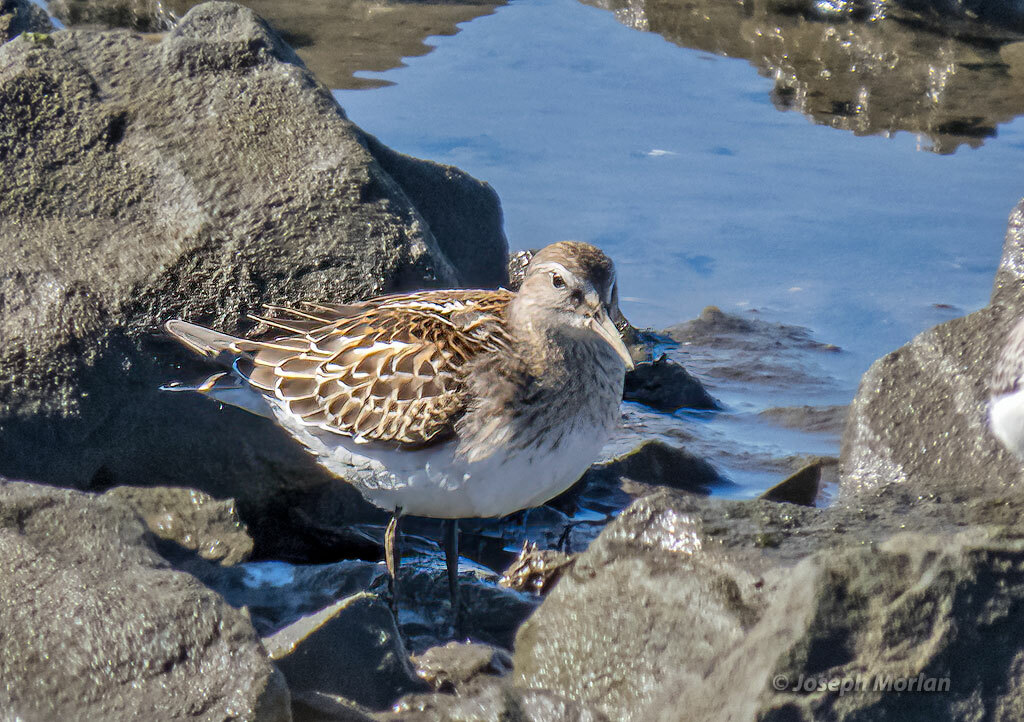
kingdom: Animalia
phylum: Chordata
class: Aves
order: Charadriiformes
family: Scolopacidae
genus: Calidris
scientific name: Calidris fuscicollis
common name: White-rumped sandpiper
